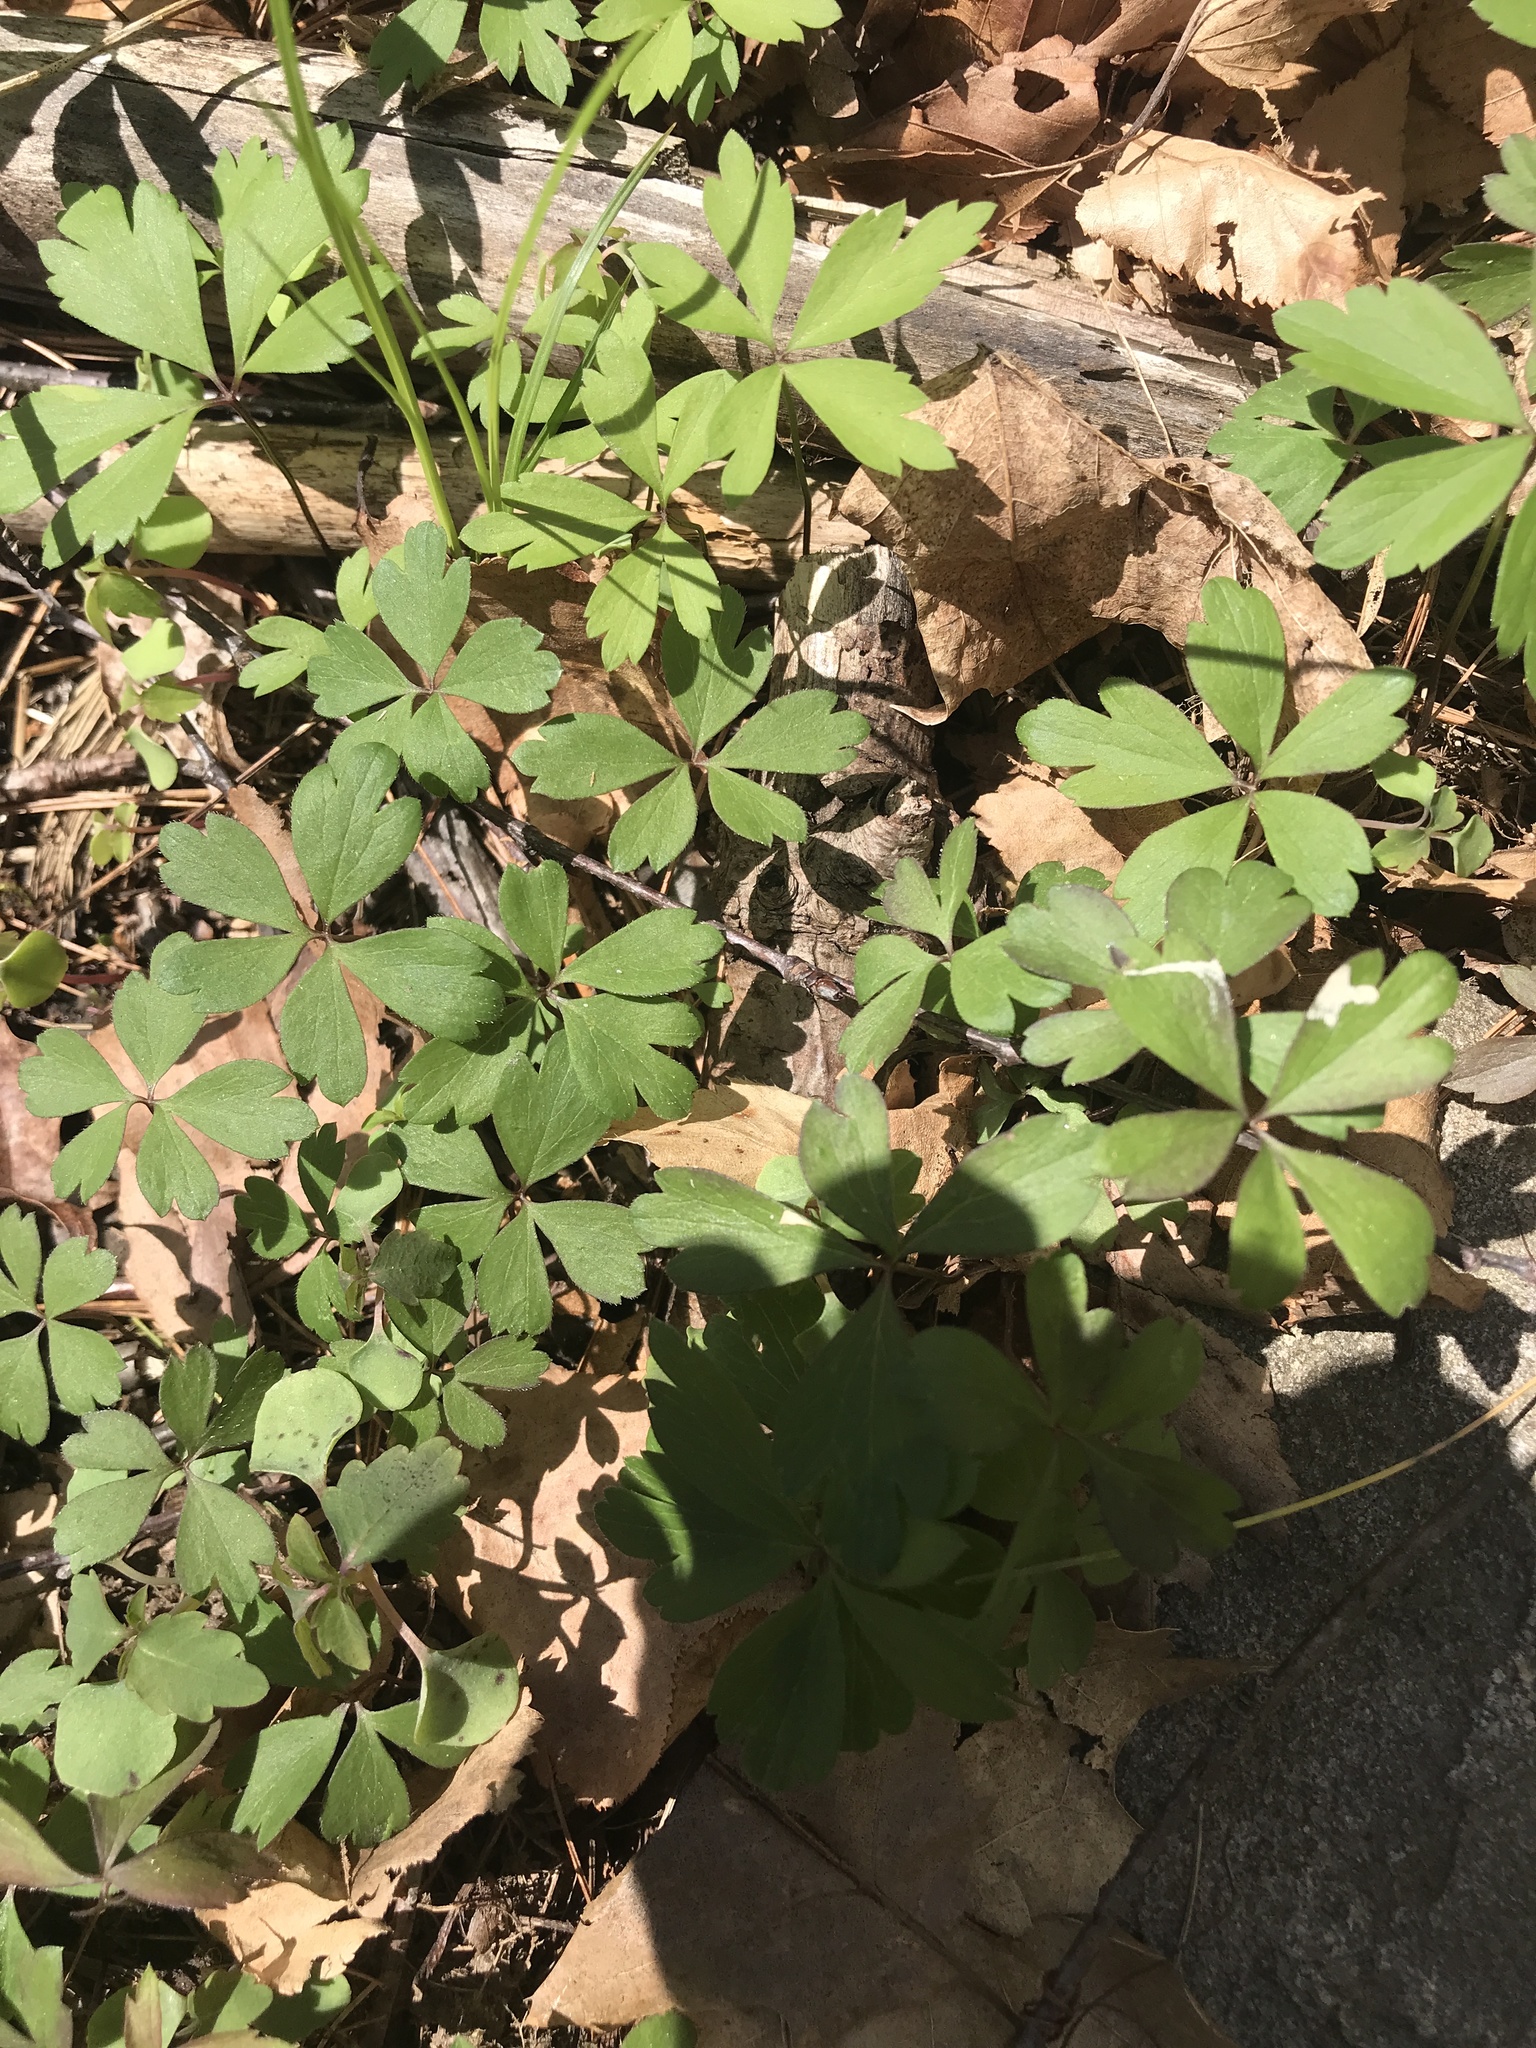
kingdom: Plantae
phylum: Tracheophyta
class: Magnoliopsida
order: Ranunculales
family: Ranunculaceae
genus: Anemone
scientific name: Anemone quinquefolia
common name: Wood anemone
